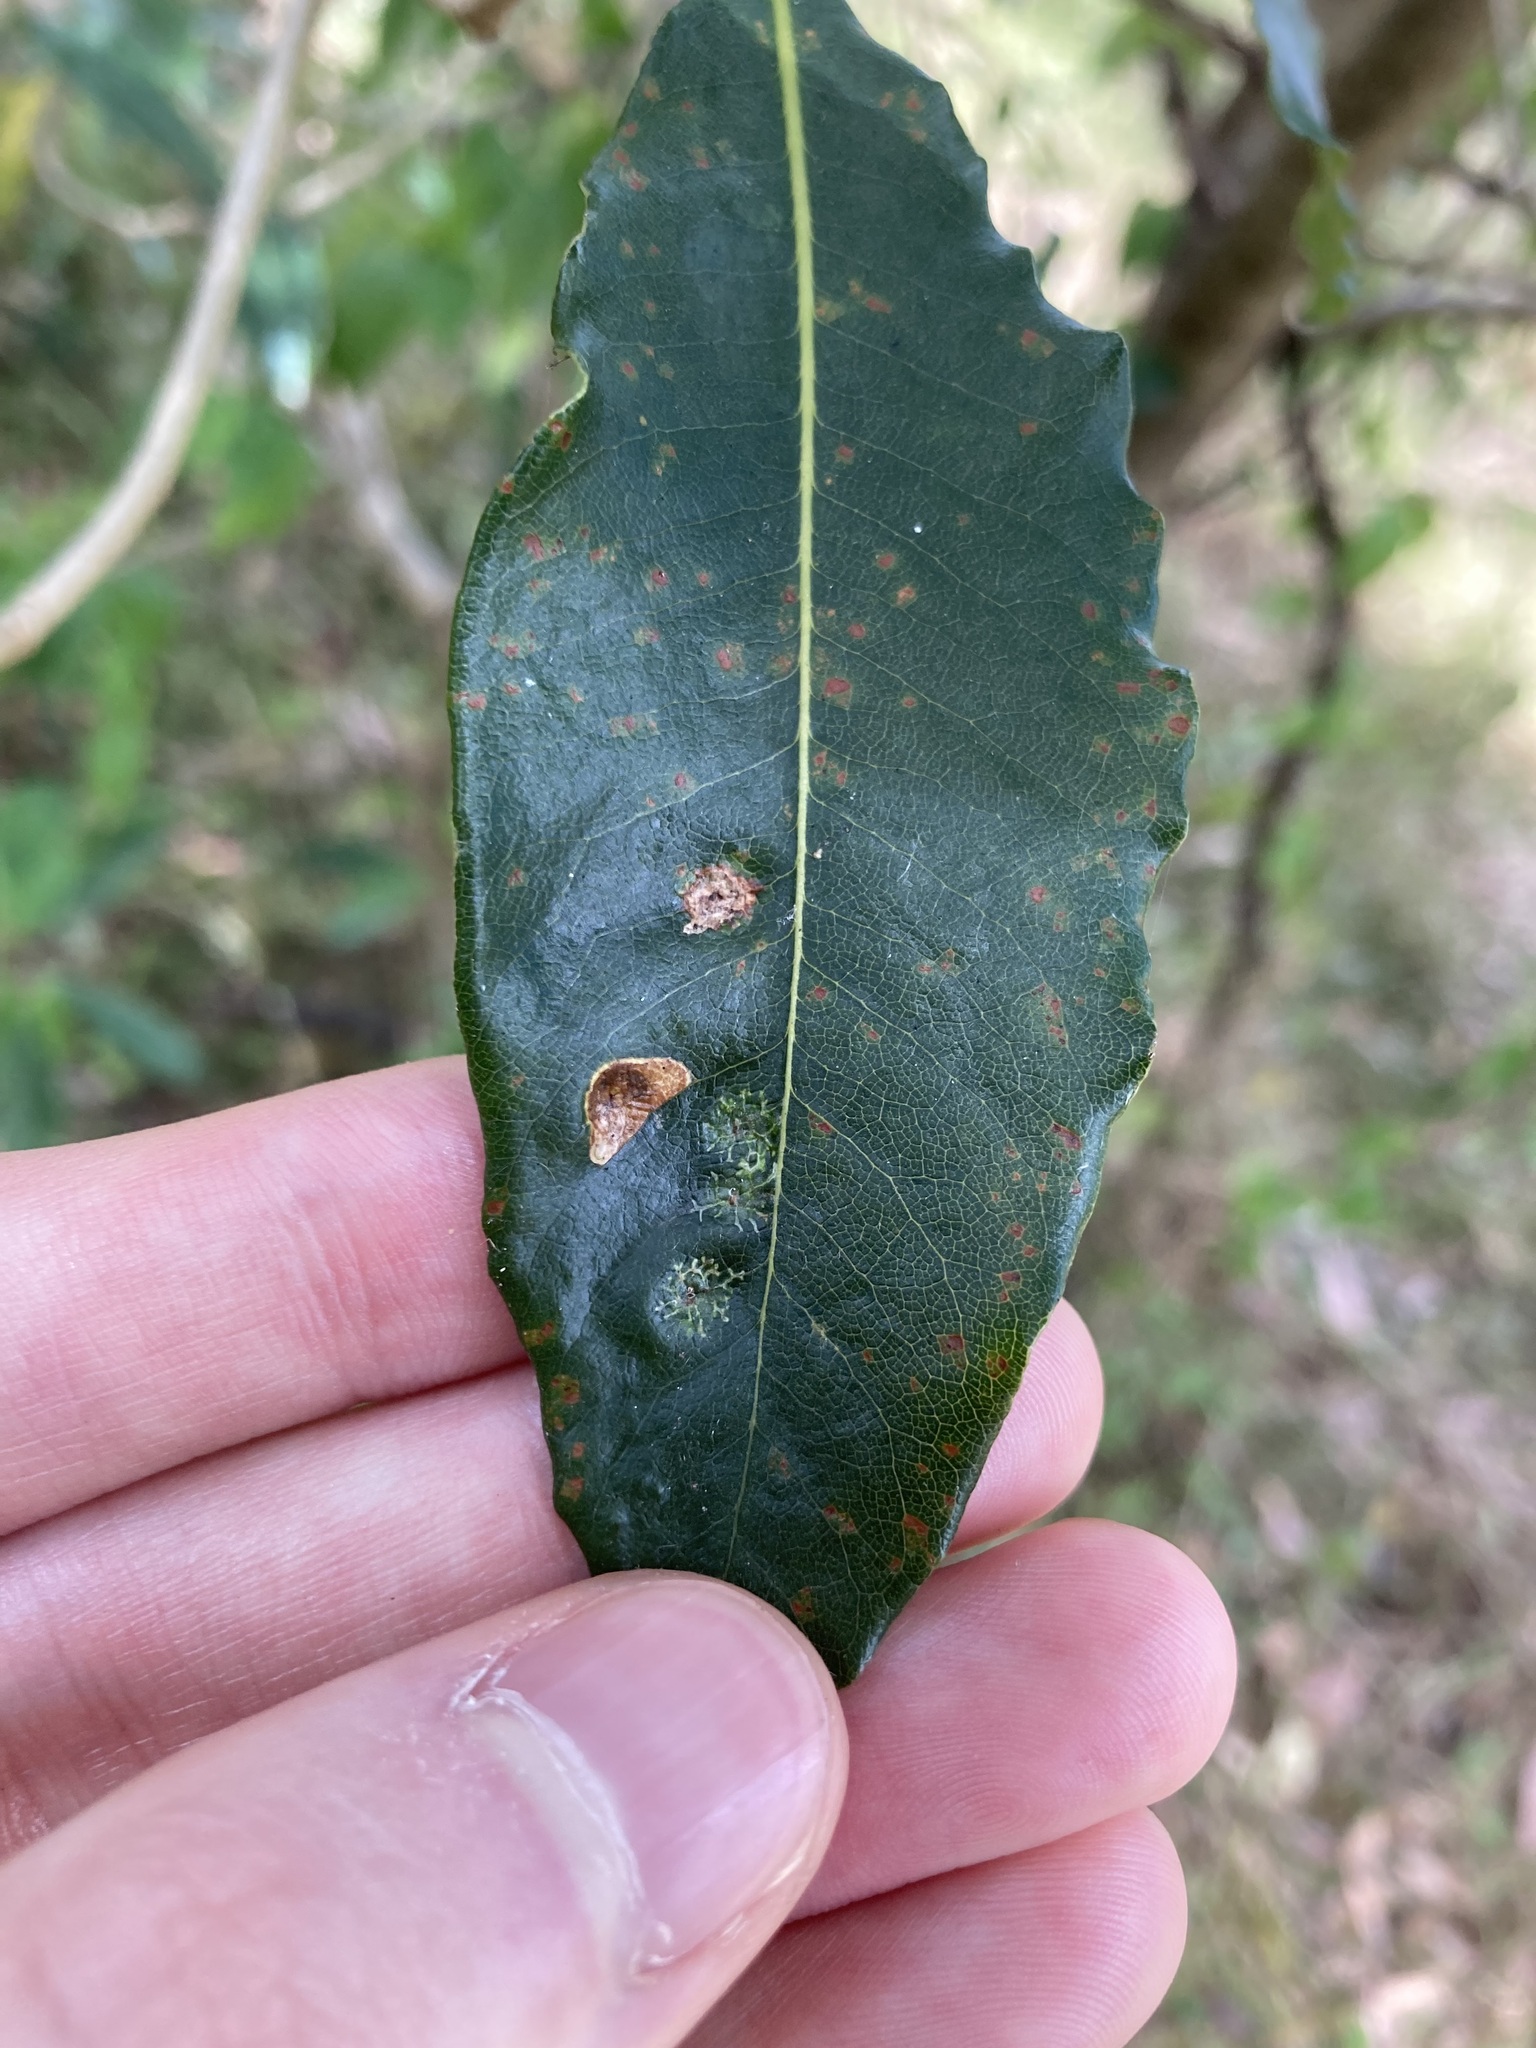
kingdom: Animalia
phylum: Arthropoda
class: Insecta
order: Diptera
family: Agromyzidae
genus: Phytoliriomyza
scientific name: Phytoliriomyza pittosporophylli
